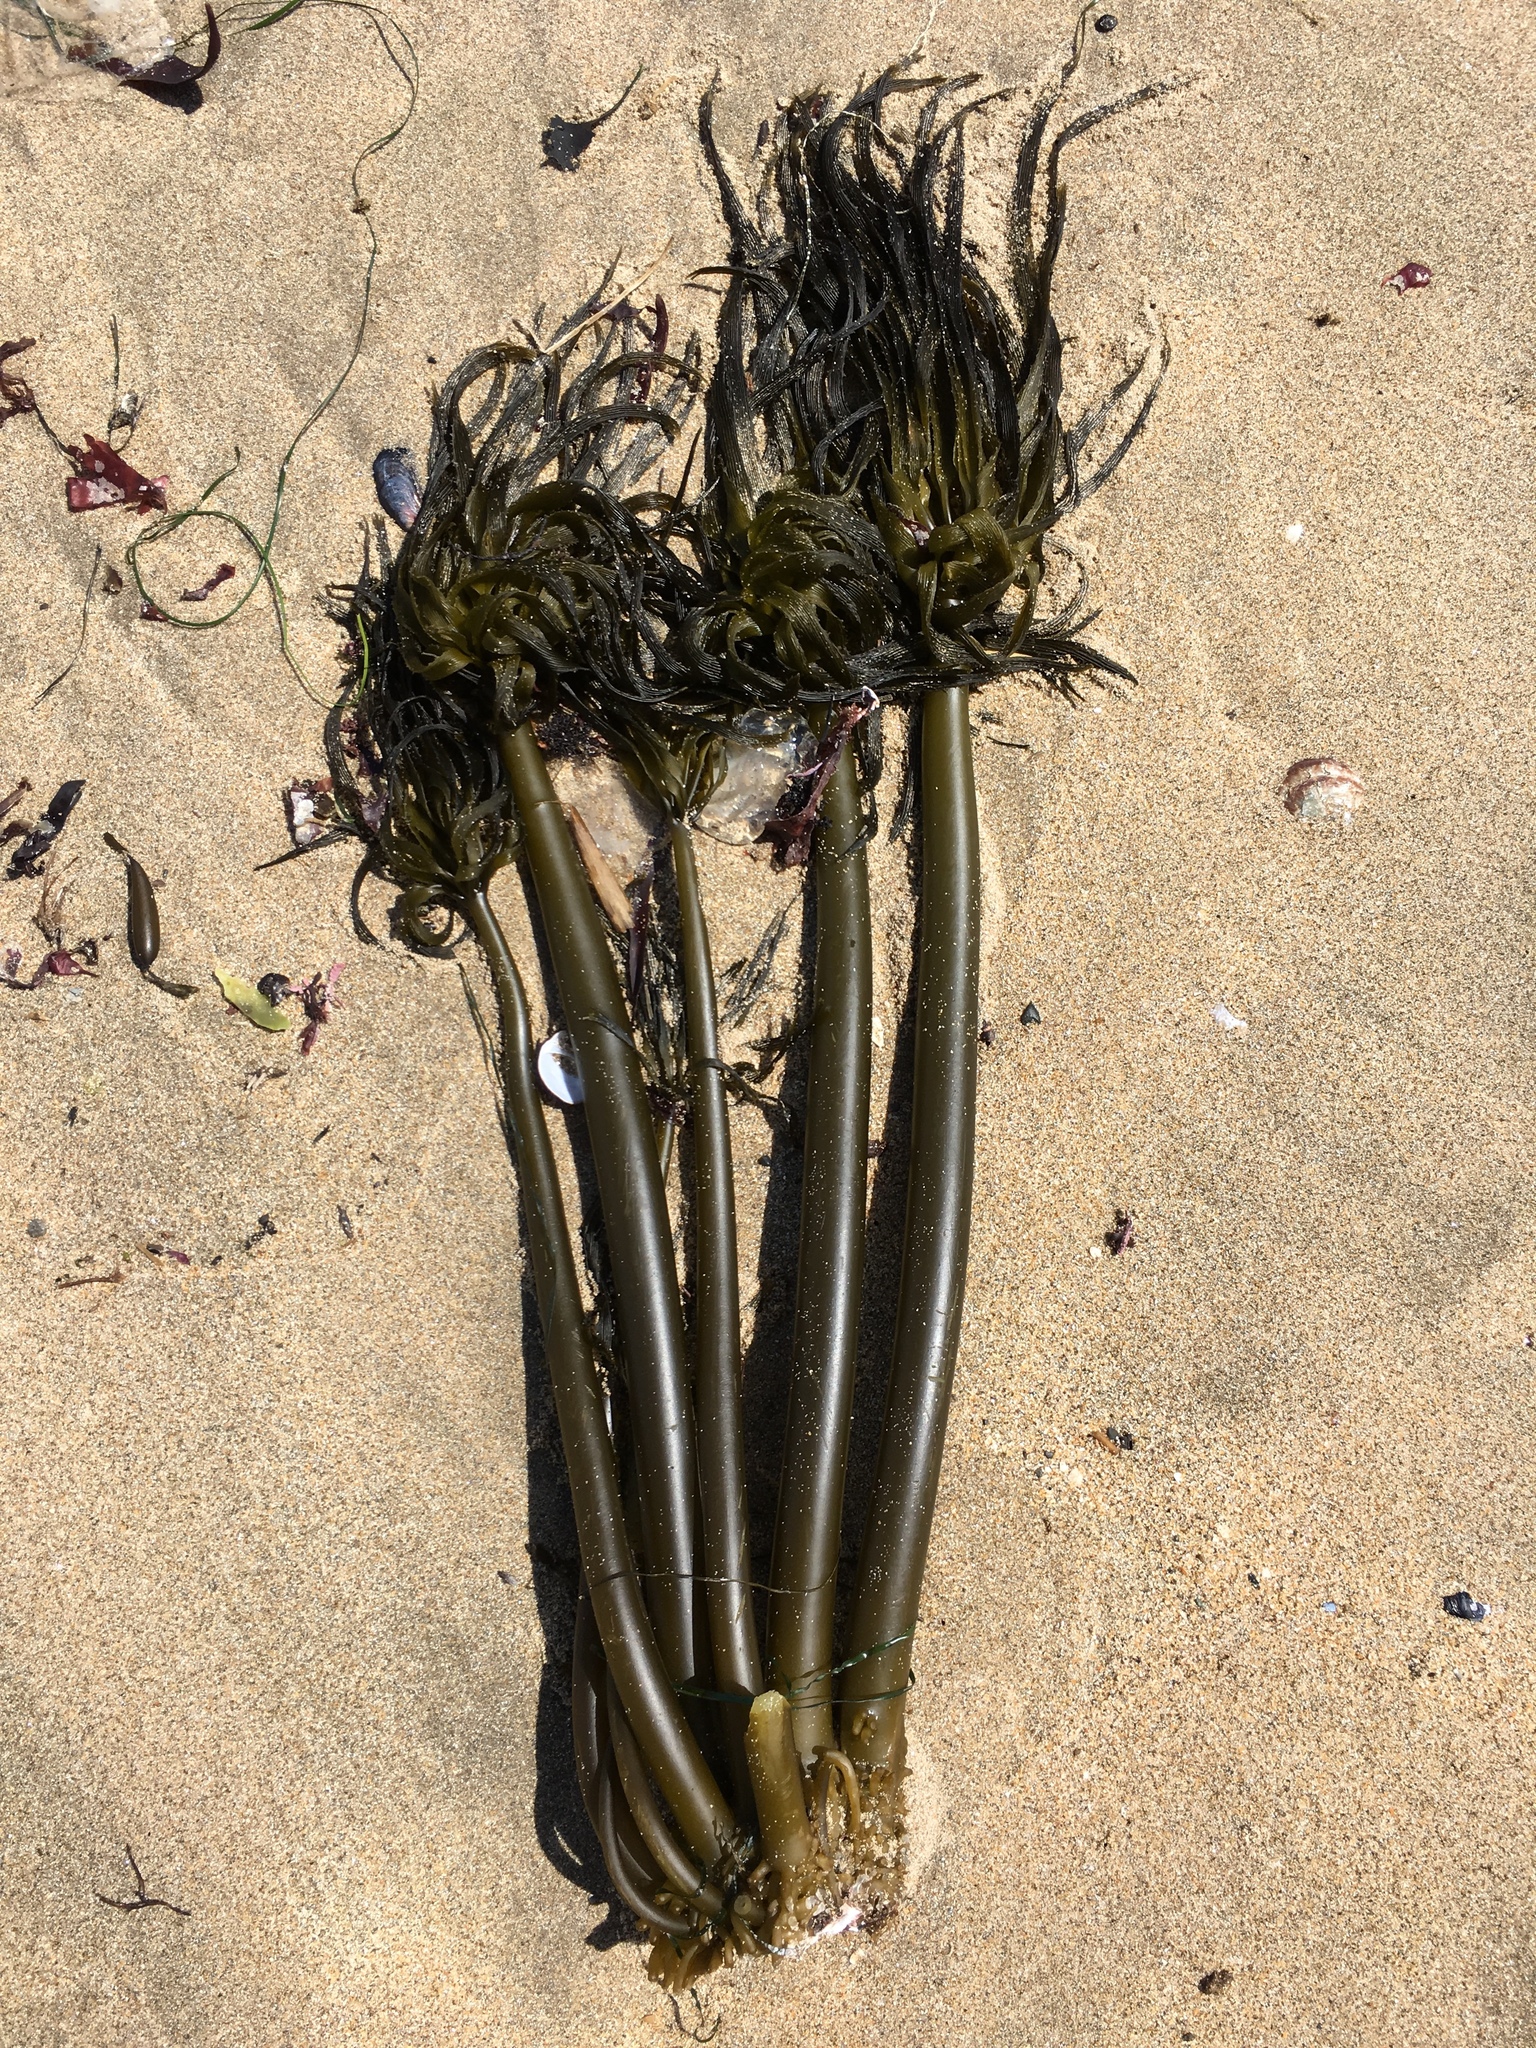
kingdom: Chromista
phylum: Ochrophyta
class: Phaeophyceae
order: Laminariales
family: Laminariaceae
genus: Postelsia
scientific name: Postelsia palmiformis
